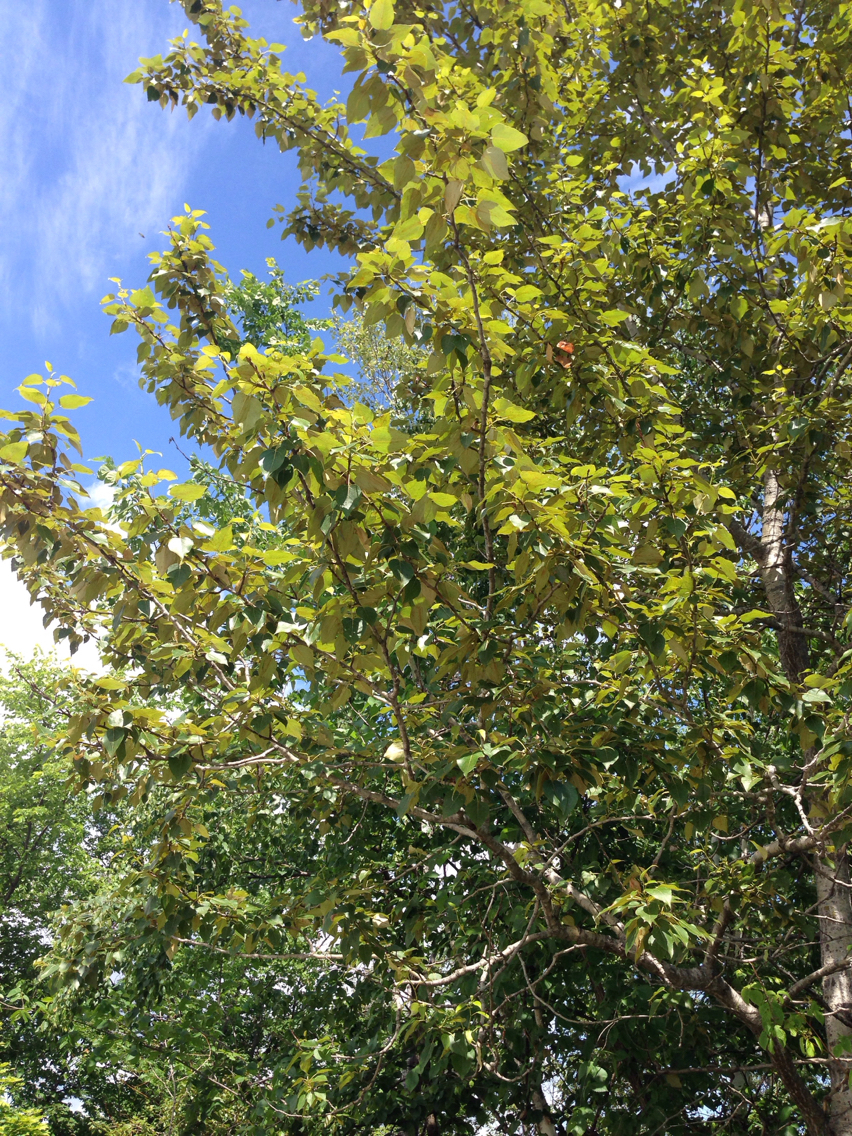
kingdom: Plantae
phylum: Tracheophyta
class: Magnoliopsida
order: Malpighiales
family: Salicaceae
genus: Populus
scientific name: Populus balsamifera
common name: Balsam poplar
